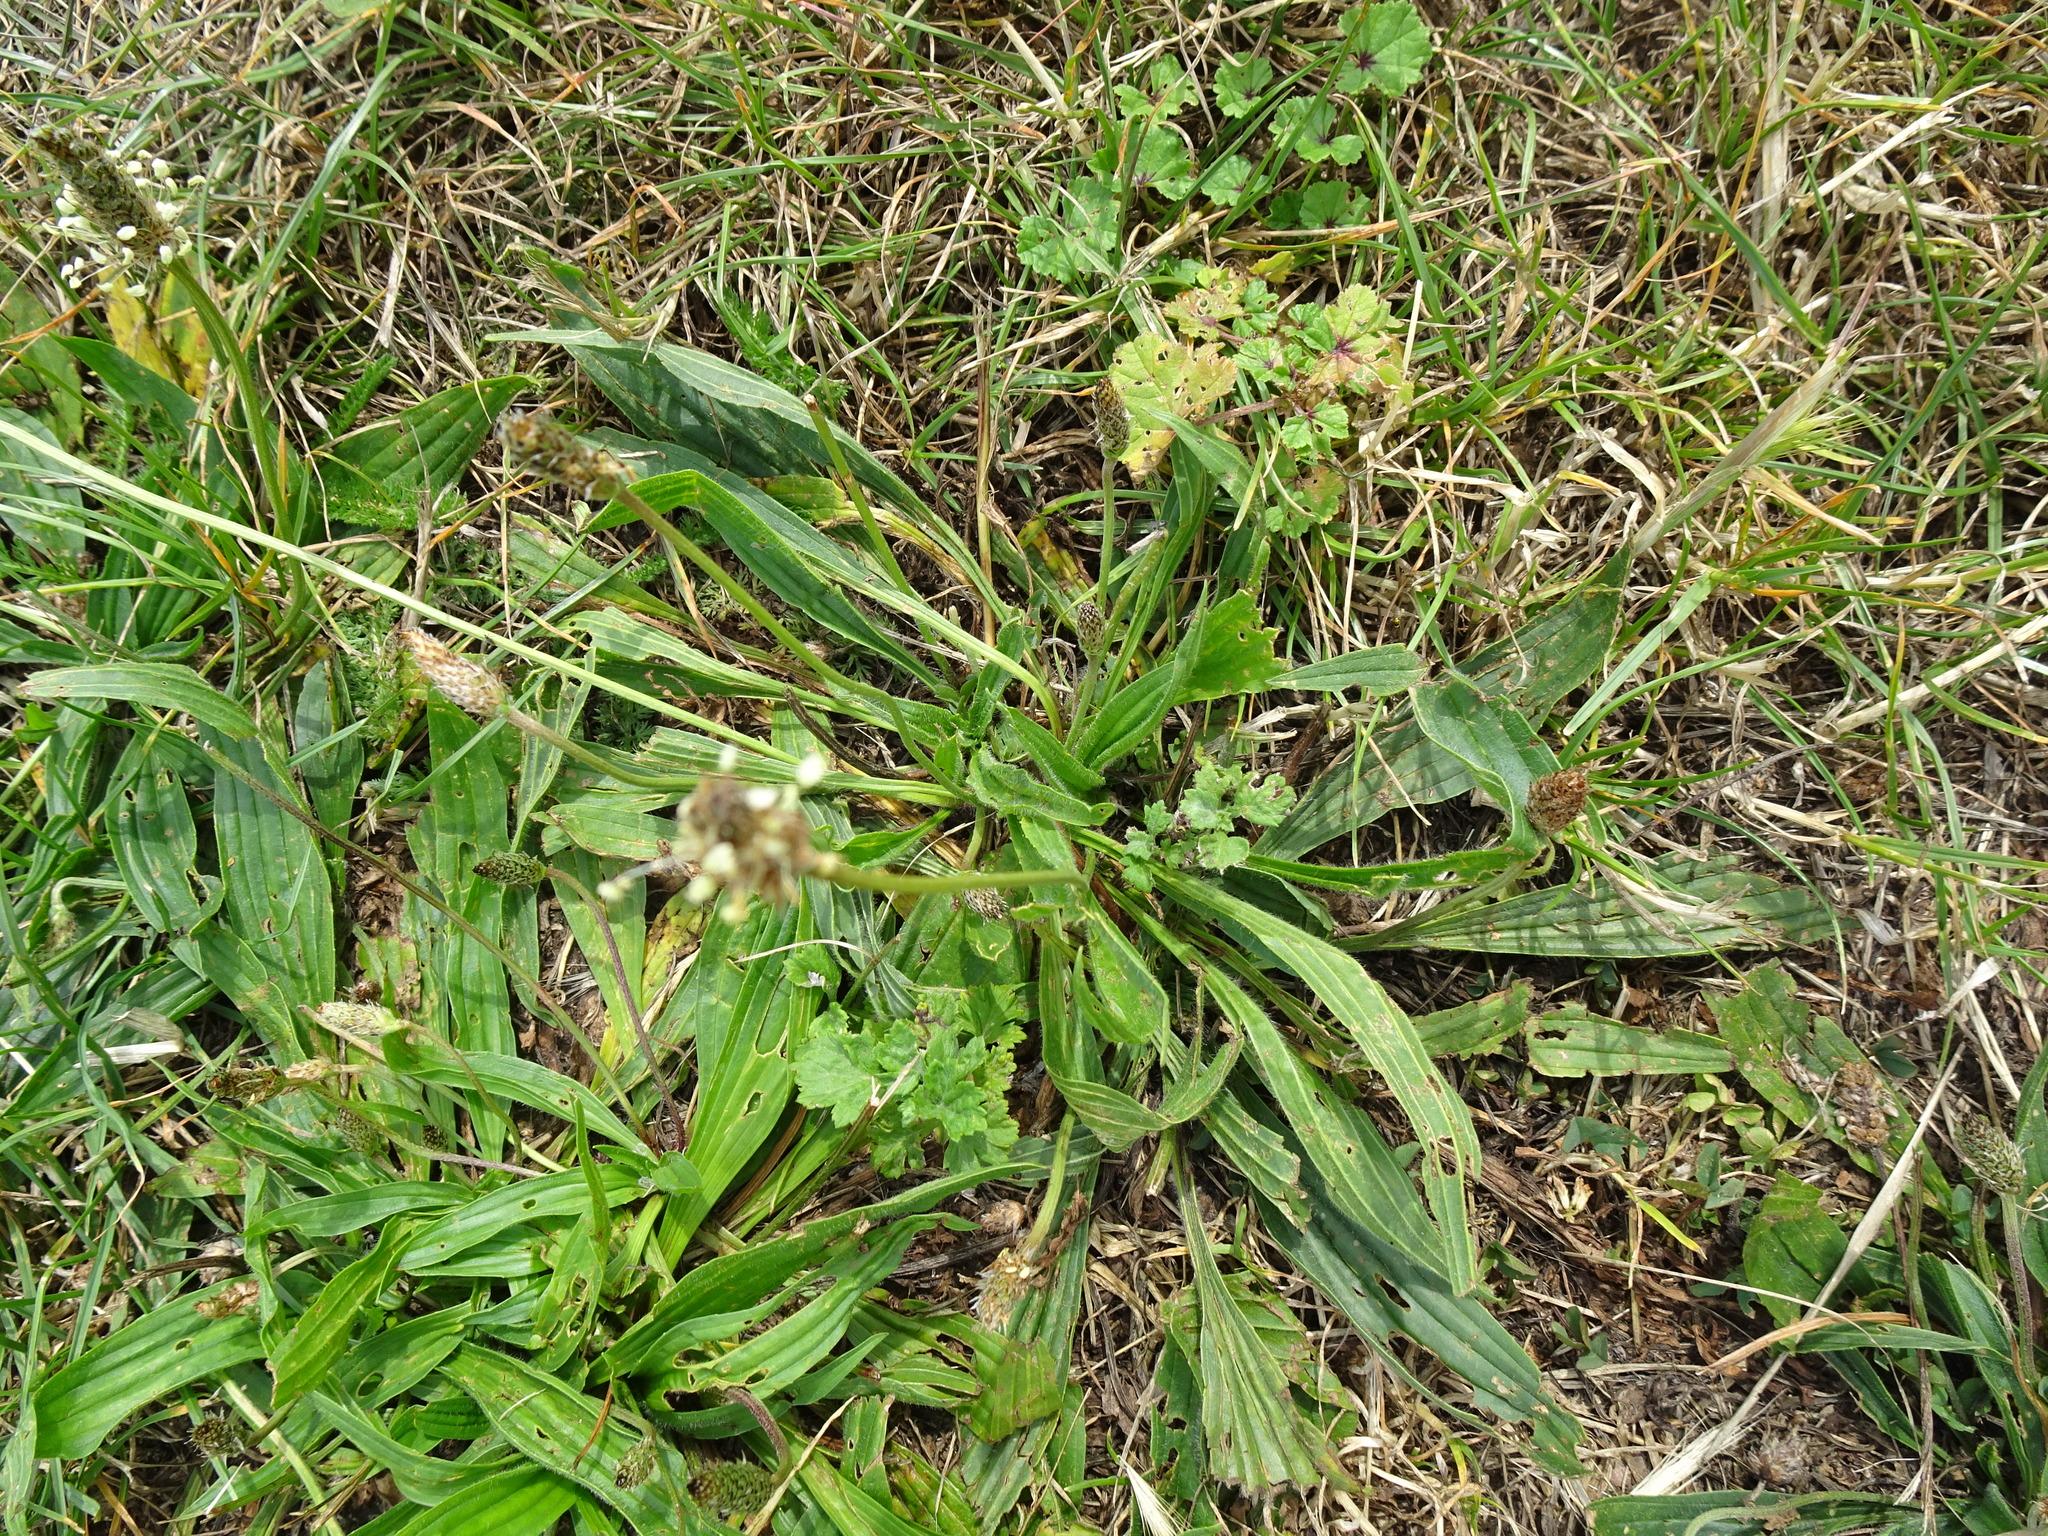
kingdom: Plantae
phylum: Tracheophyta
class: Magnoliopsida
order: Lamiales
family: Plantaginaceae
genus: Plantago
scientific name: Plantago lanceolata
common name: Ribwort plantain
